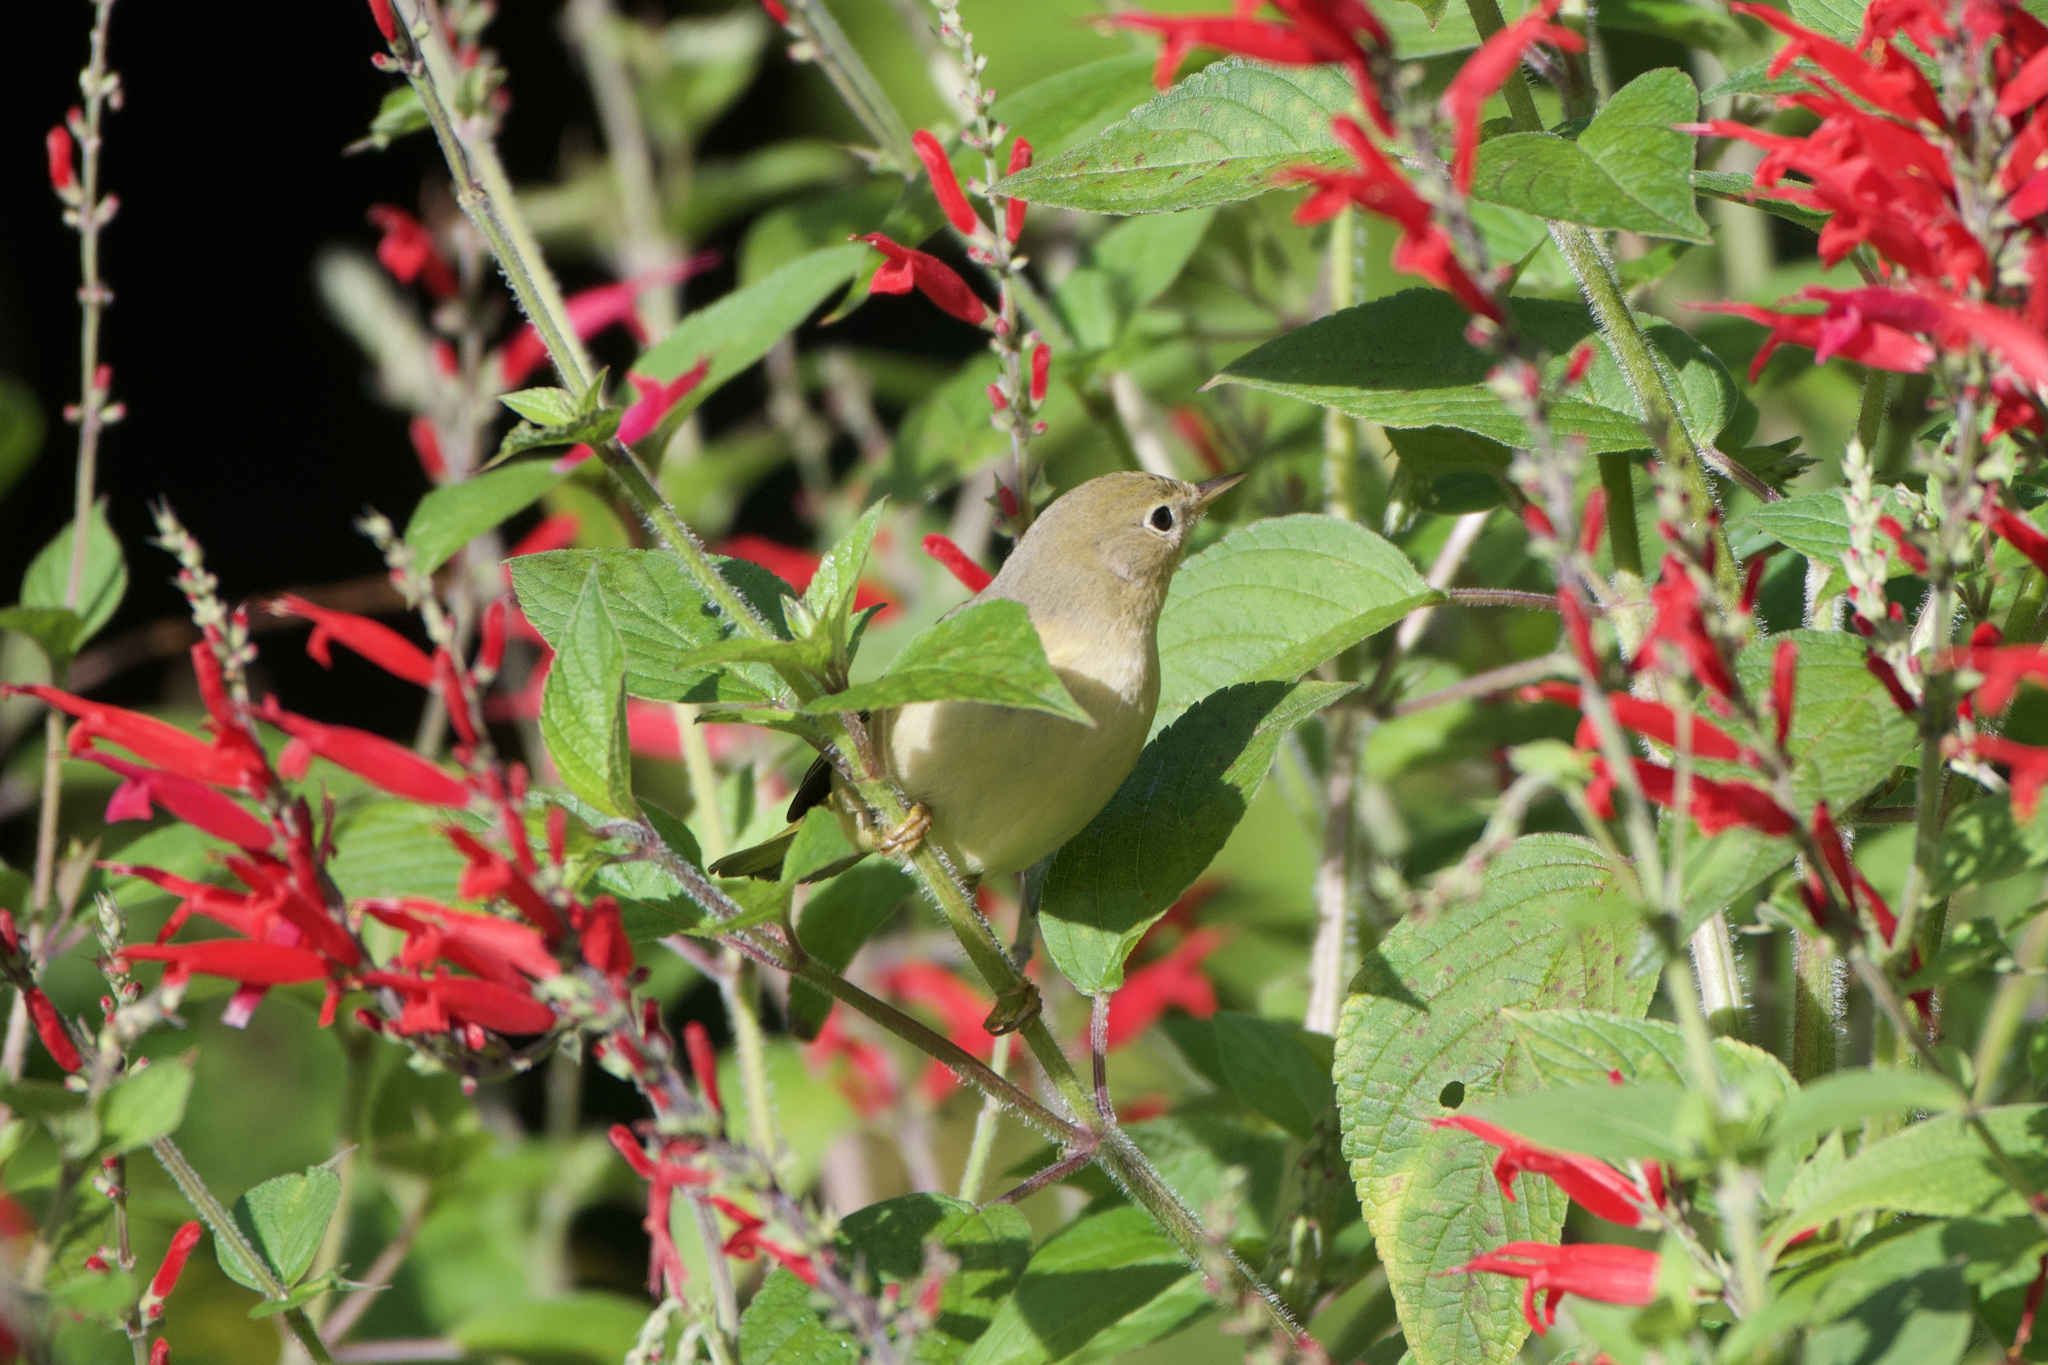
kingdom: Animalia
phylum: Chordata
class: Aves
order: Passeriformes
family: Parulidae
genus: Setophaga
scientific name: Setophaga petechia
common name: Yellow warbler
